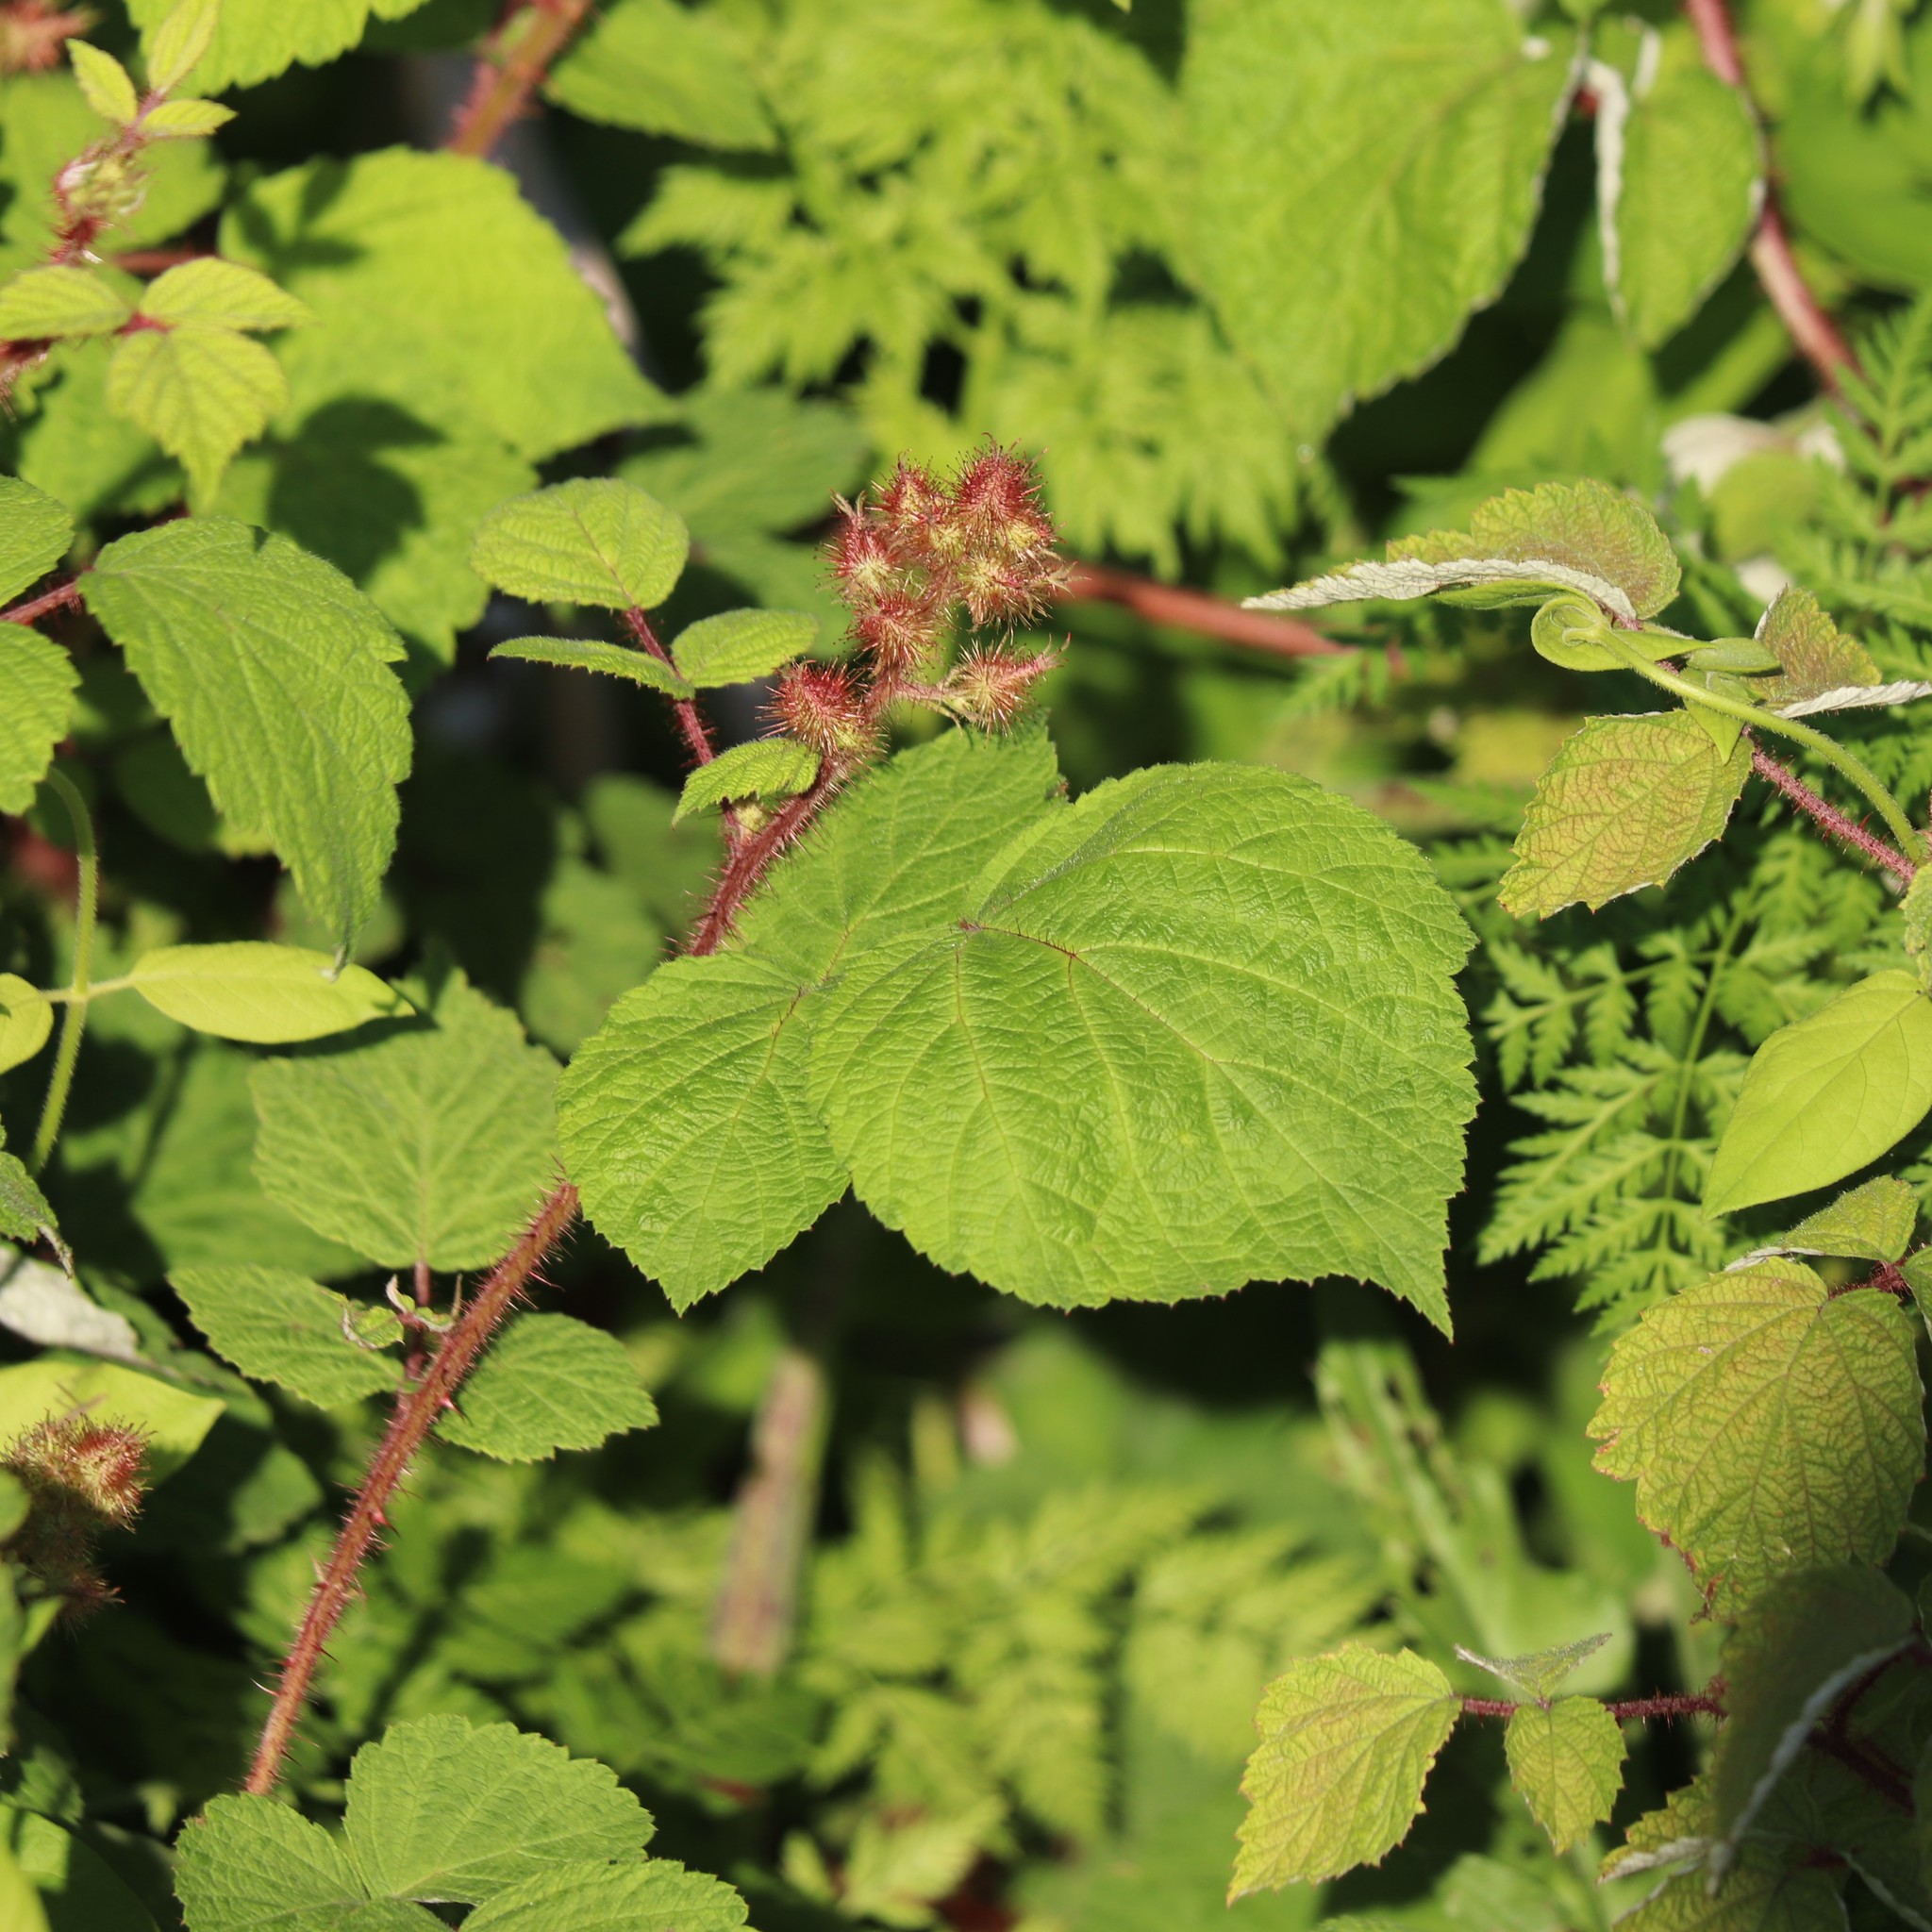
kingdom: Plantae
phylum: Tracheophyta
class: Magnoliopsida
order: Rosales
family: Rosaceae
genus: Rubus
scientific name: Rubus phoenicolasius
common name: Japanese wineberry
